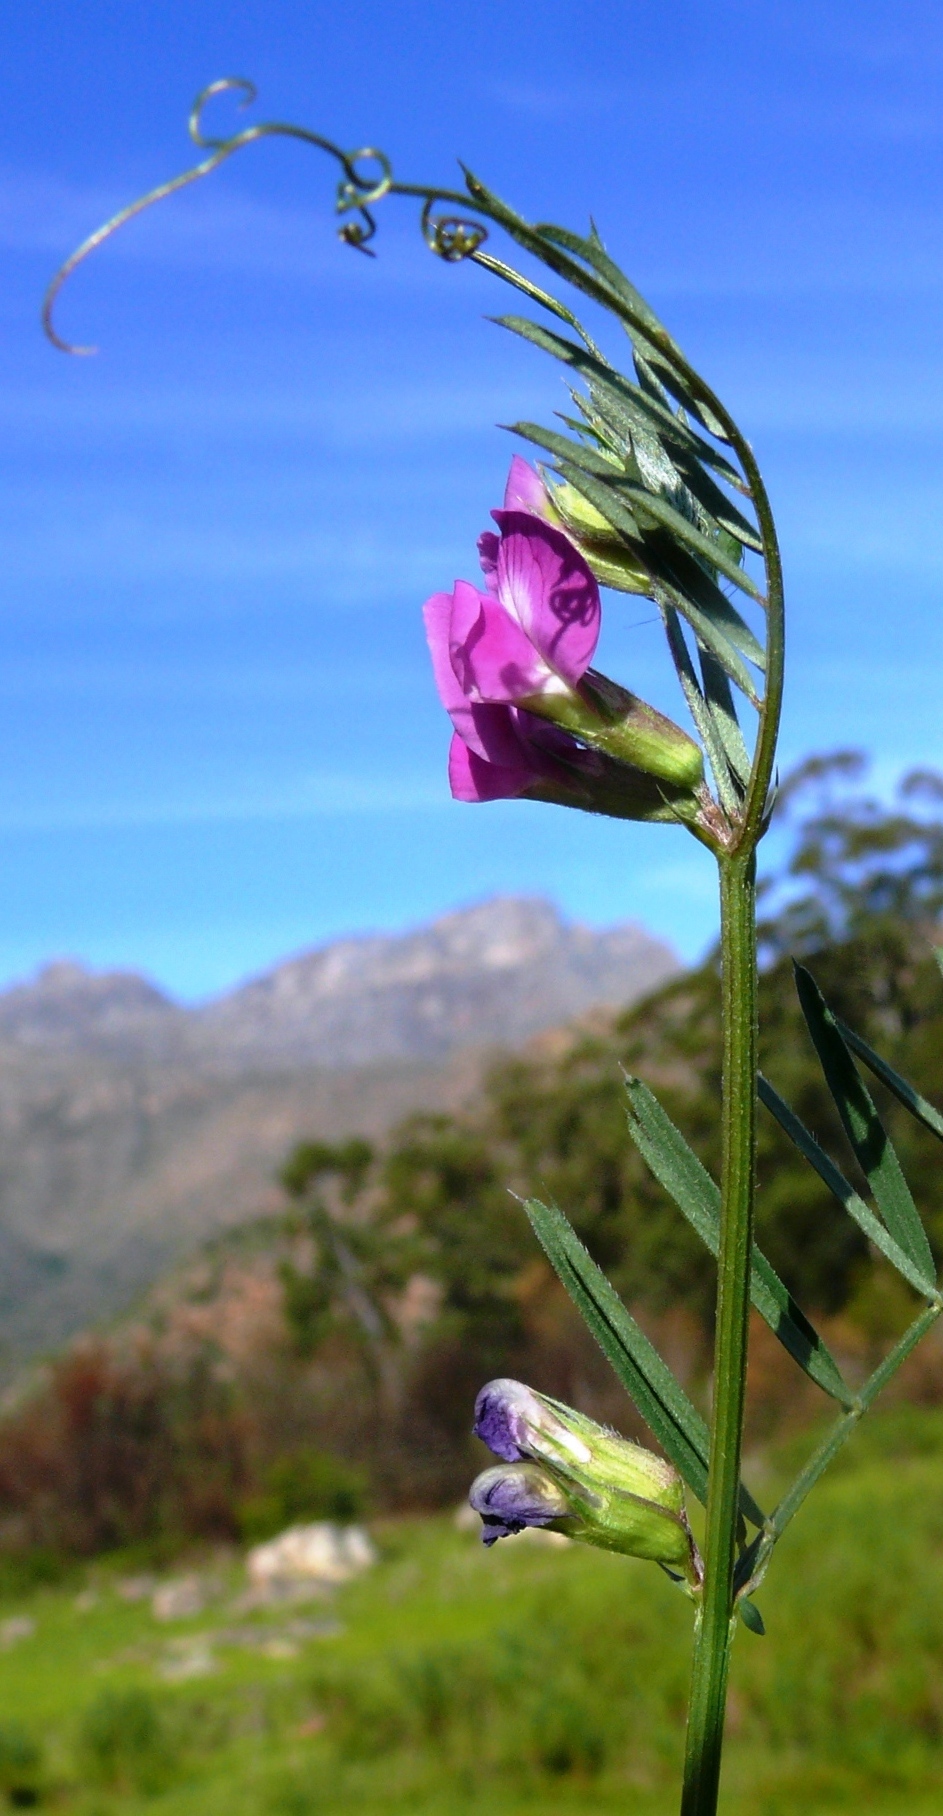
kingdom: Plantae
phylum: Tracheophyta
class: Magnoliopsida
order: Fabales
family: Fabaceae
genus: Vicia
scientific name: Vicia sativa
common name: Garden vetch
